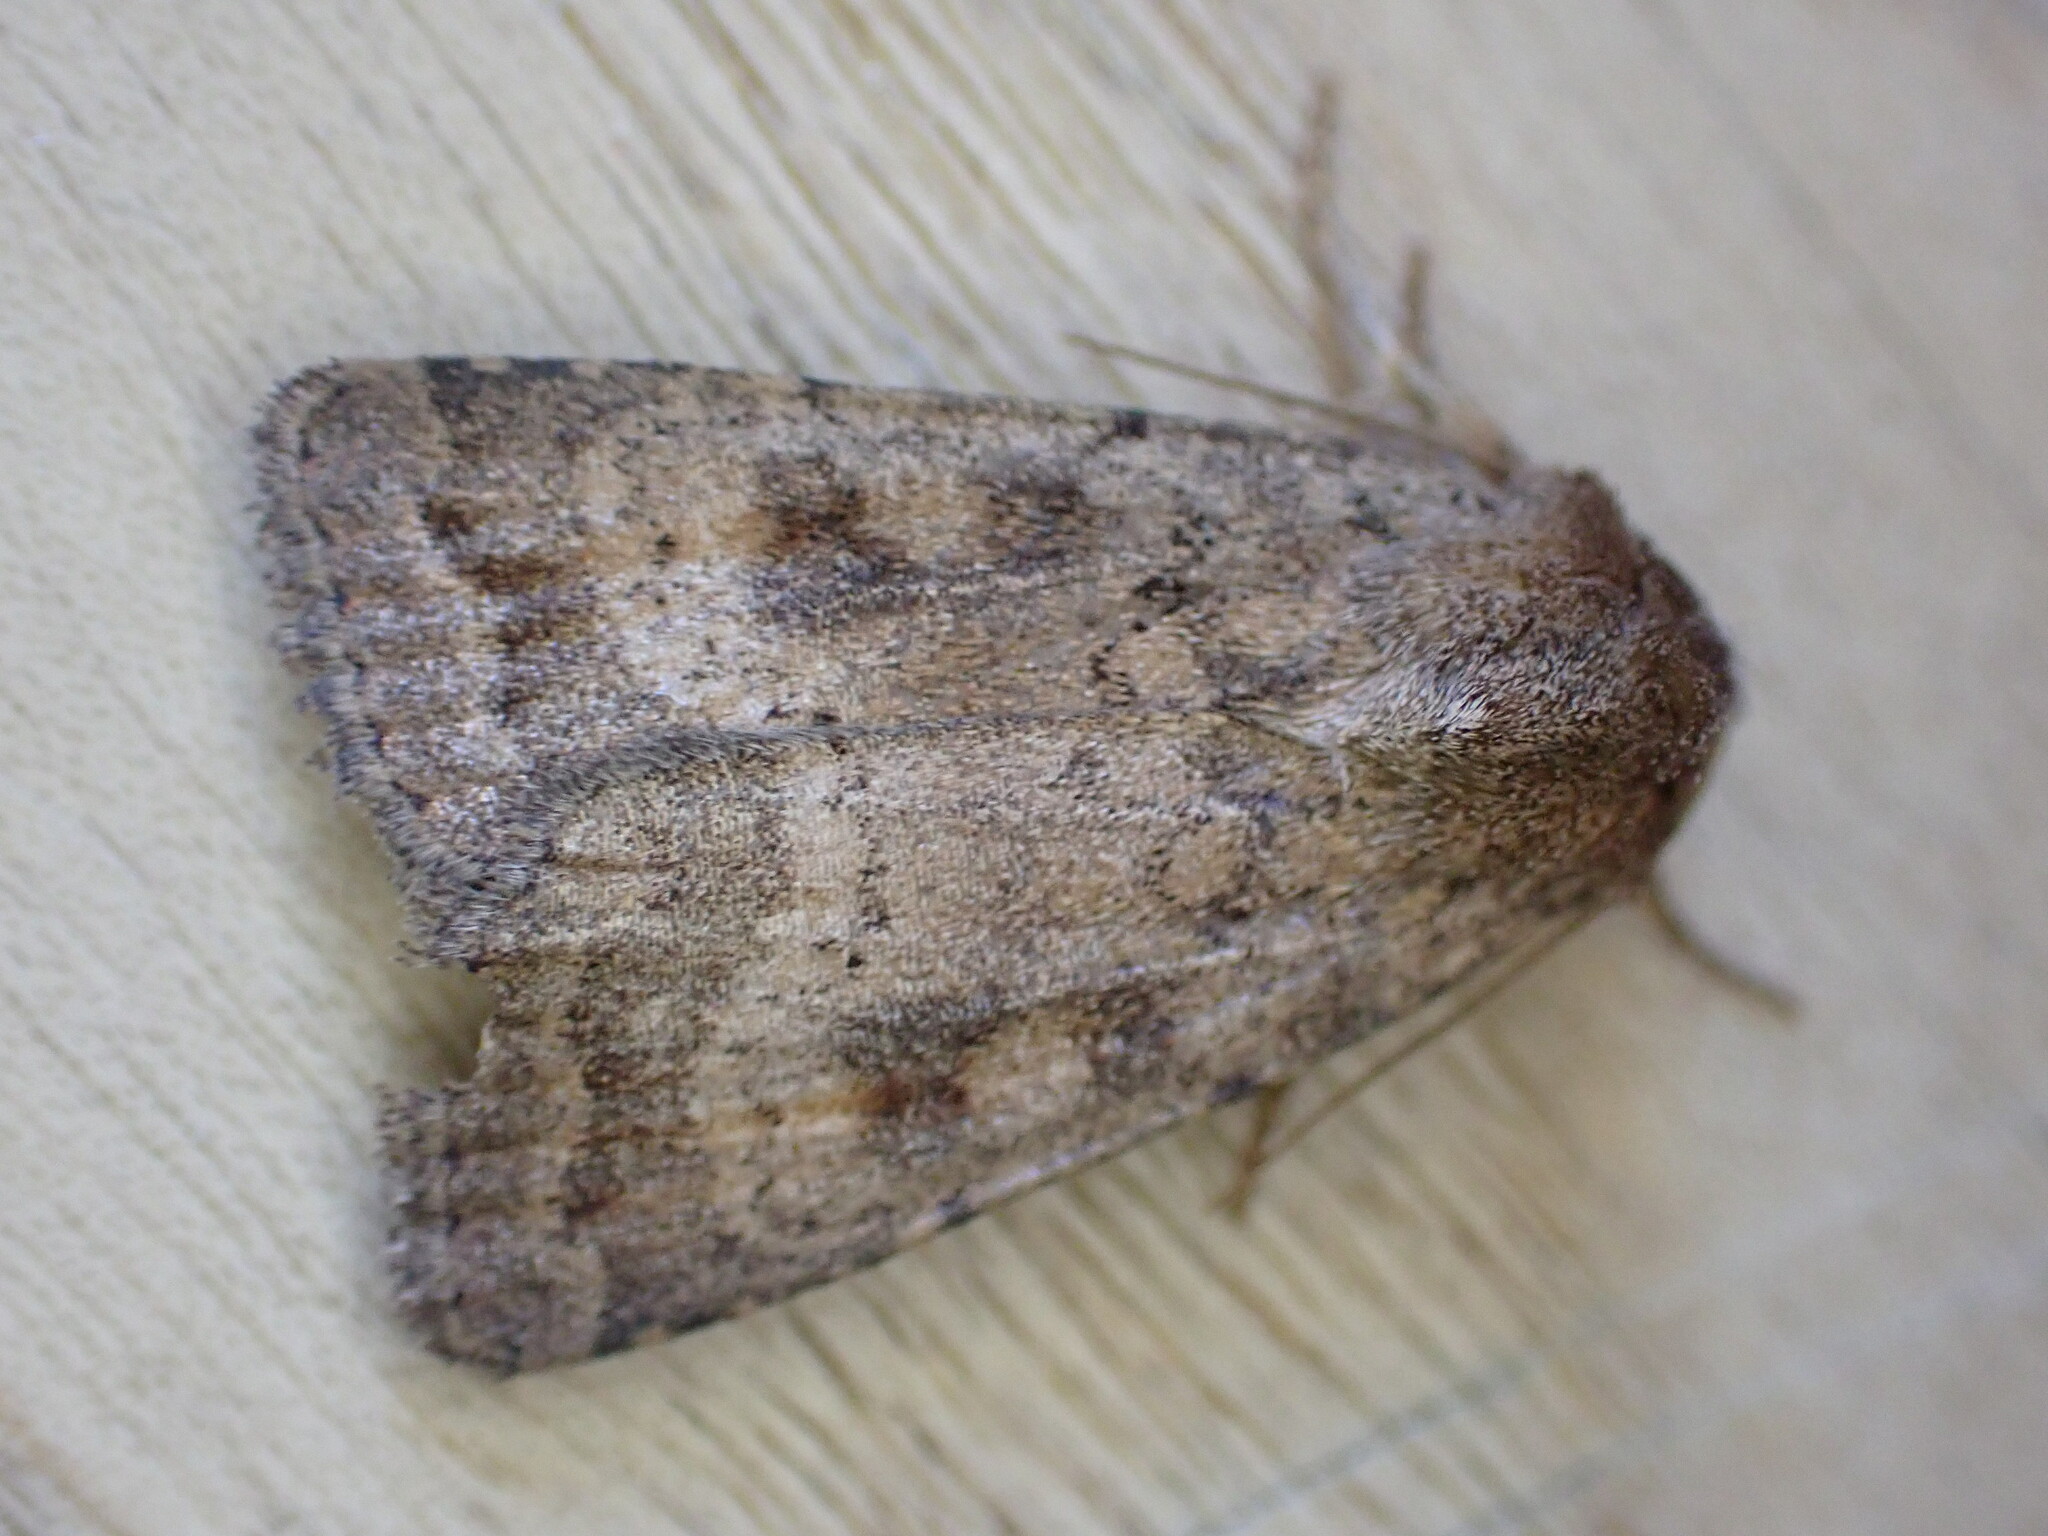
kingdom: Animalia
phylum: Arthropoda
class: Insecta
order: Lepidoptera
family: Noctuidae
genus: Caradrina
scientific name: Caradrina morpheus
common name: Mottled rustic
